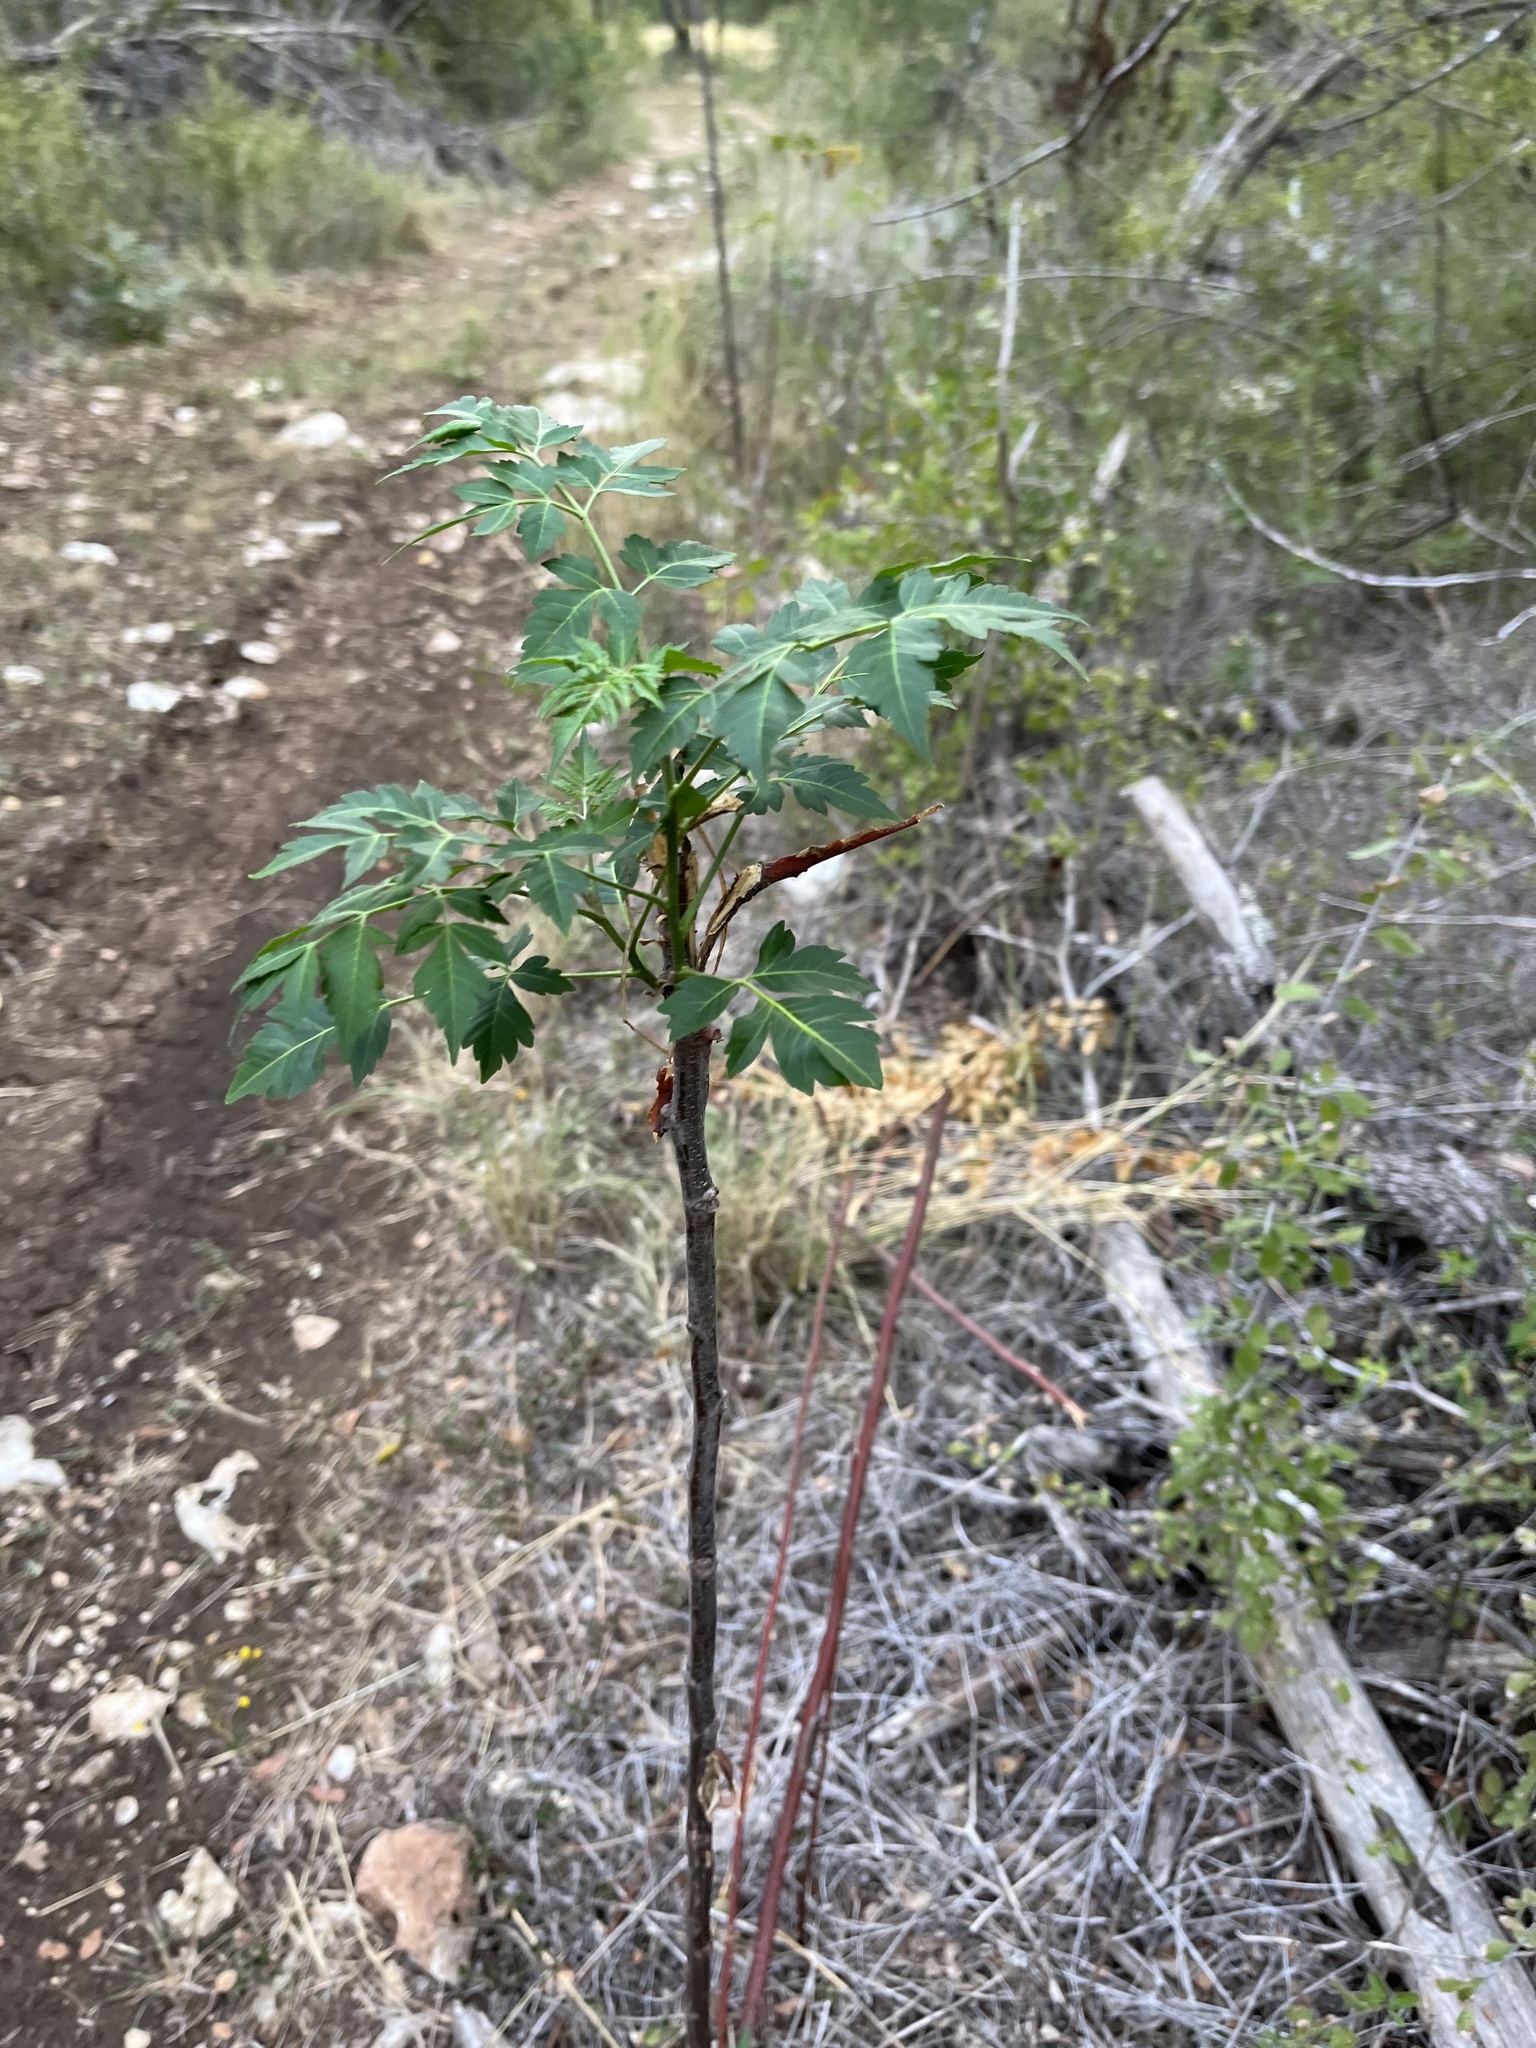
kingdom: Plantae
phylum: Tracheophyta
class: Magnoliopsida
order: Sapindales
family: Meliaceae
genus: Melia
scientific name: Melia azedarach
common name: Chinaberrytree
